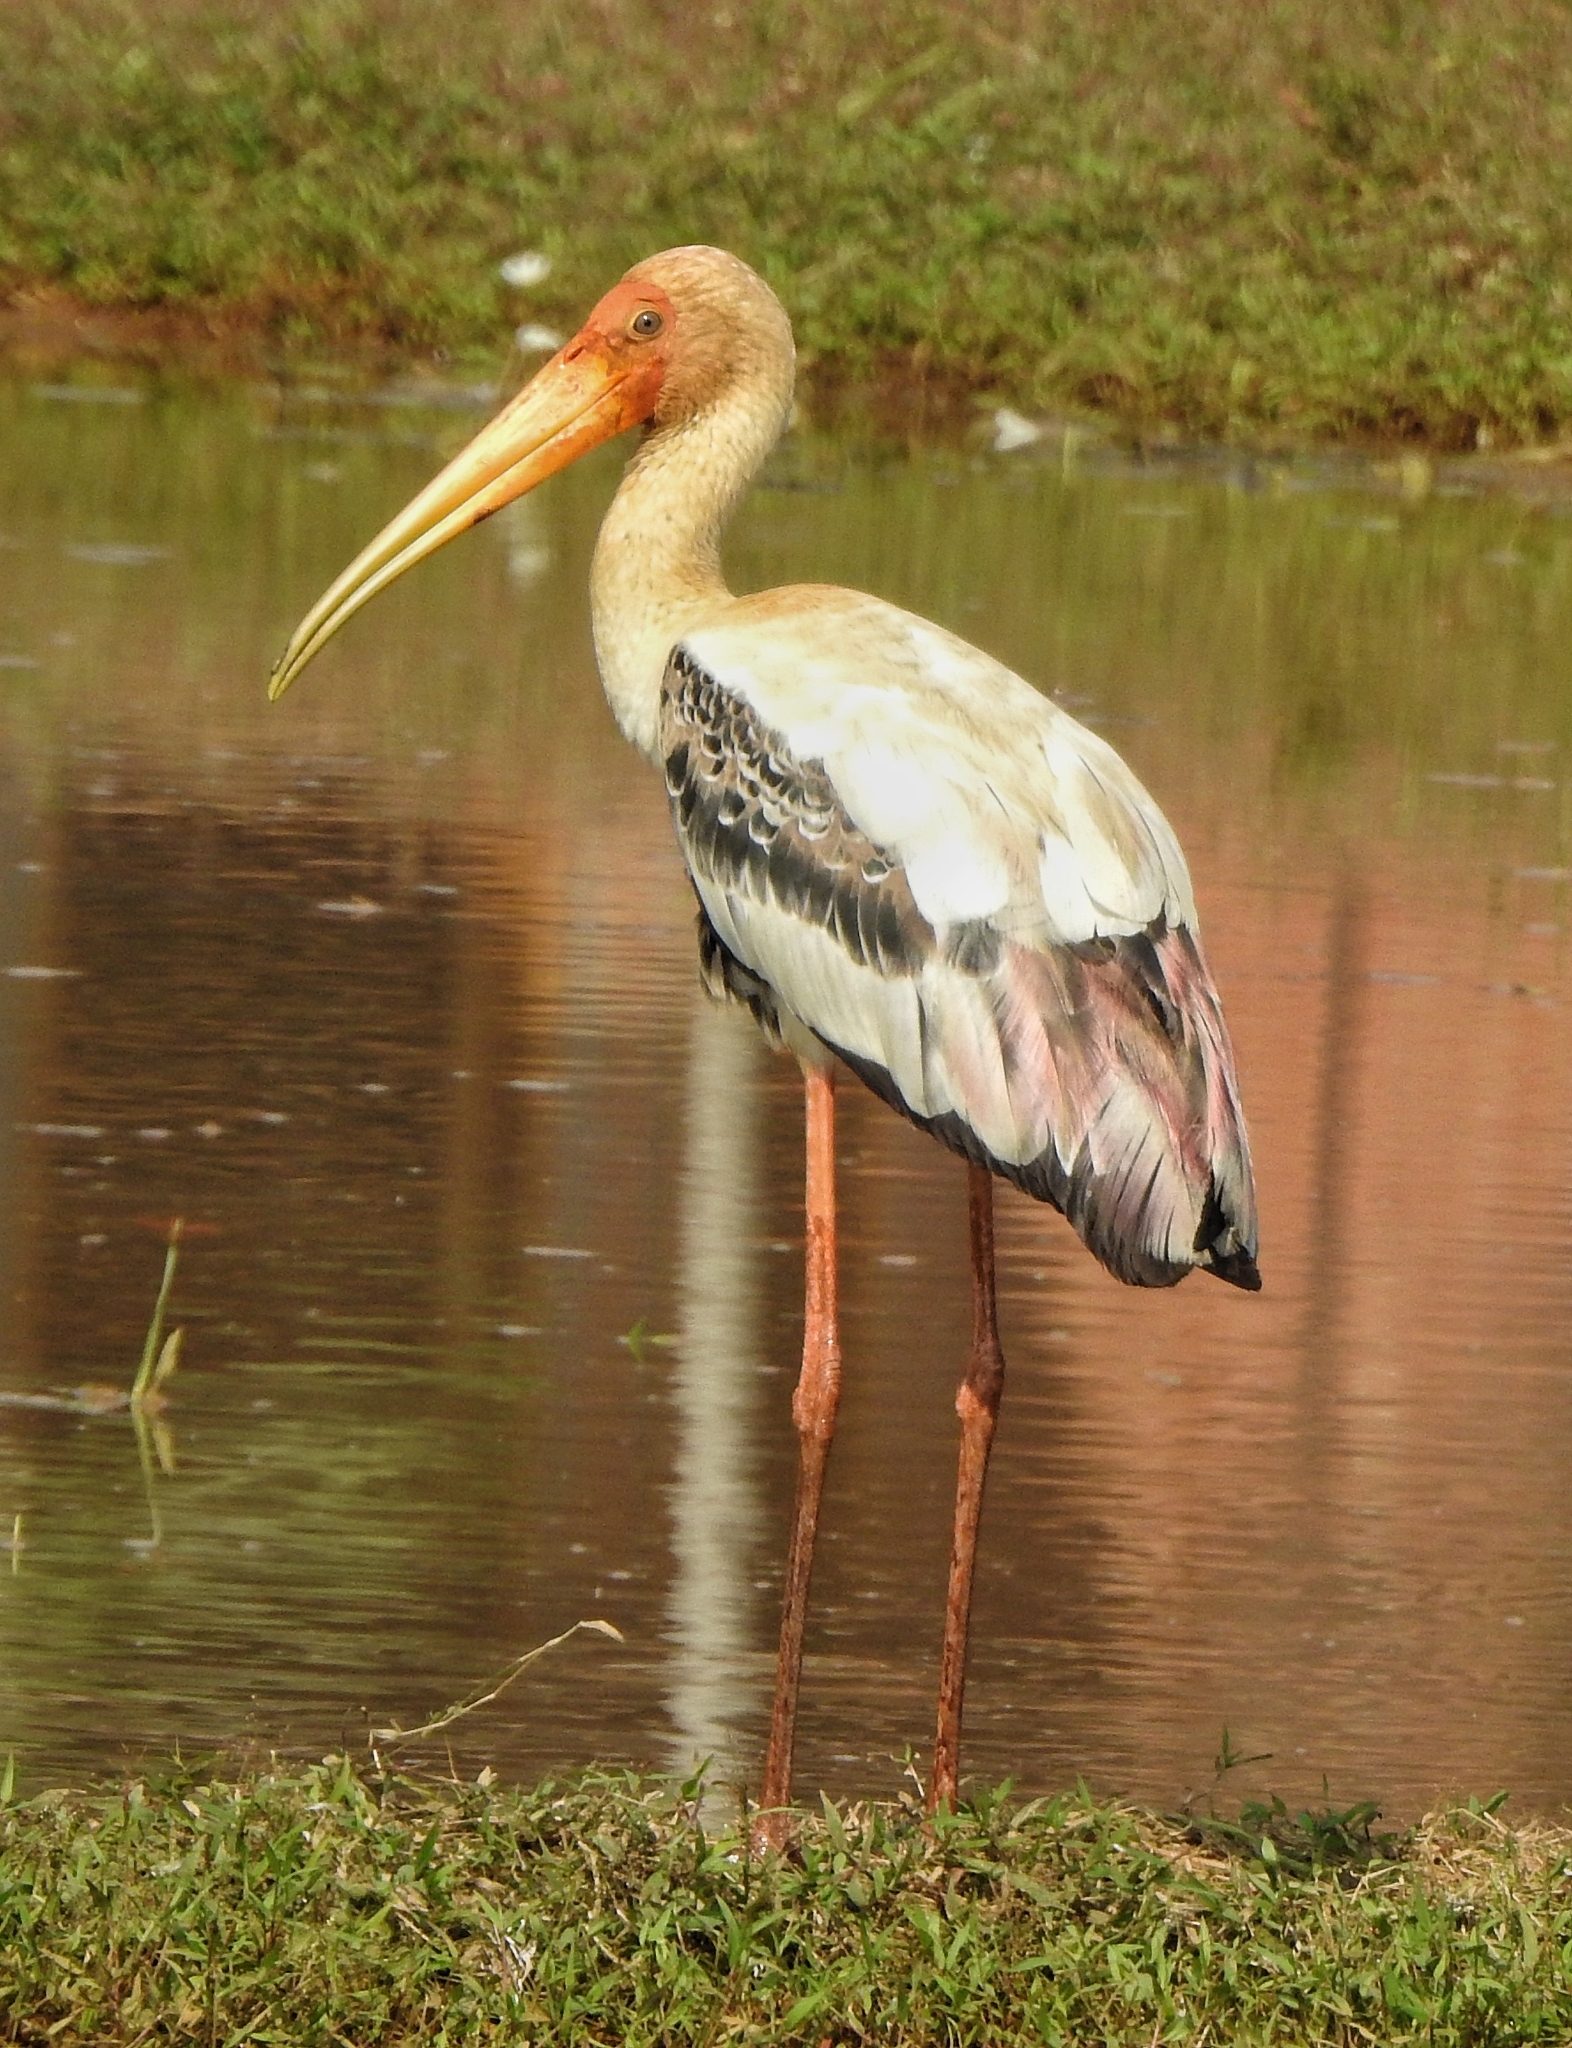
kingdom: Animalia
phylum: Chordata
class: Aves
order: Ciconiiformes
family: Ciconiidae
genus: Mycteria
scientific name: Mycteria leucocephala
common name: Painted stork
